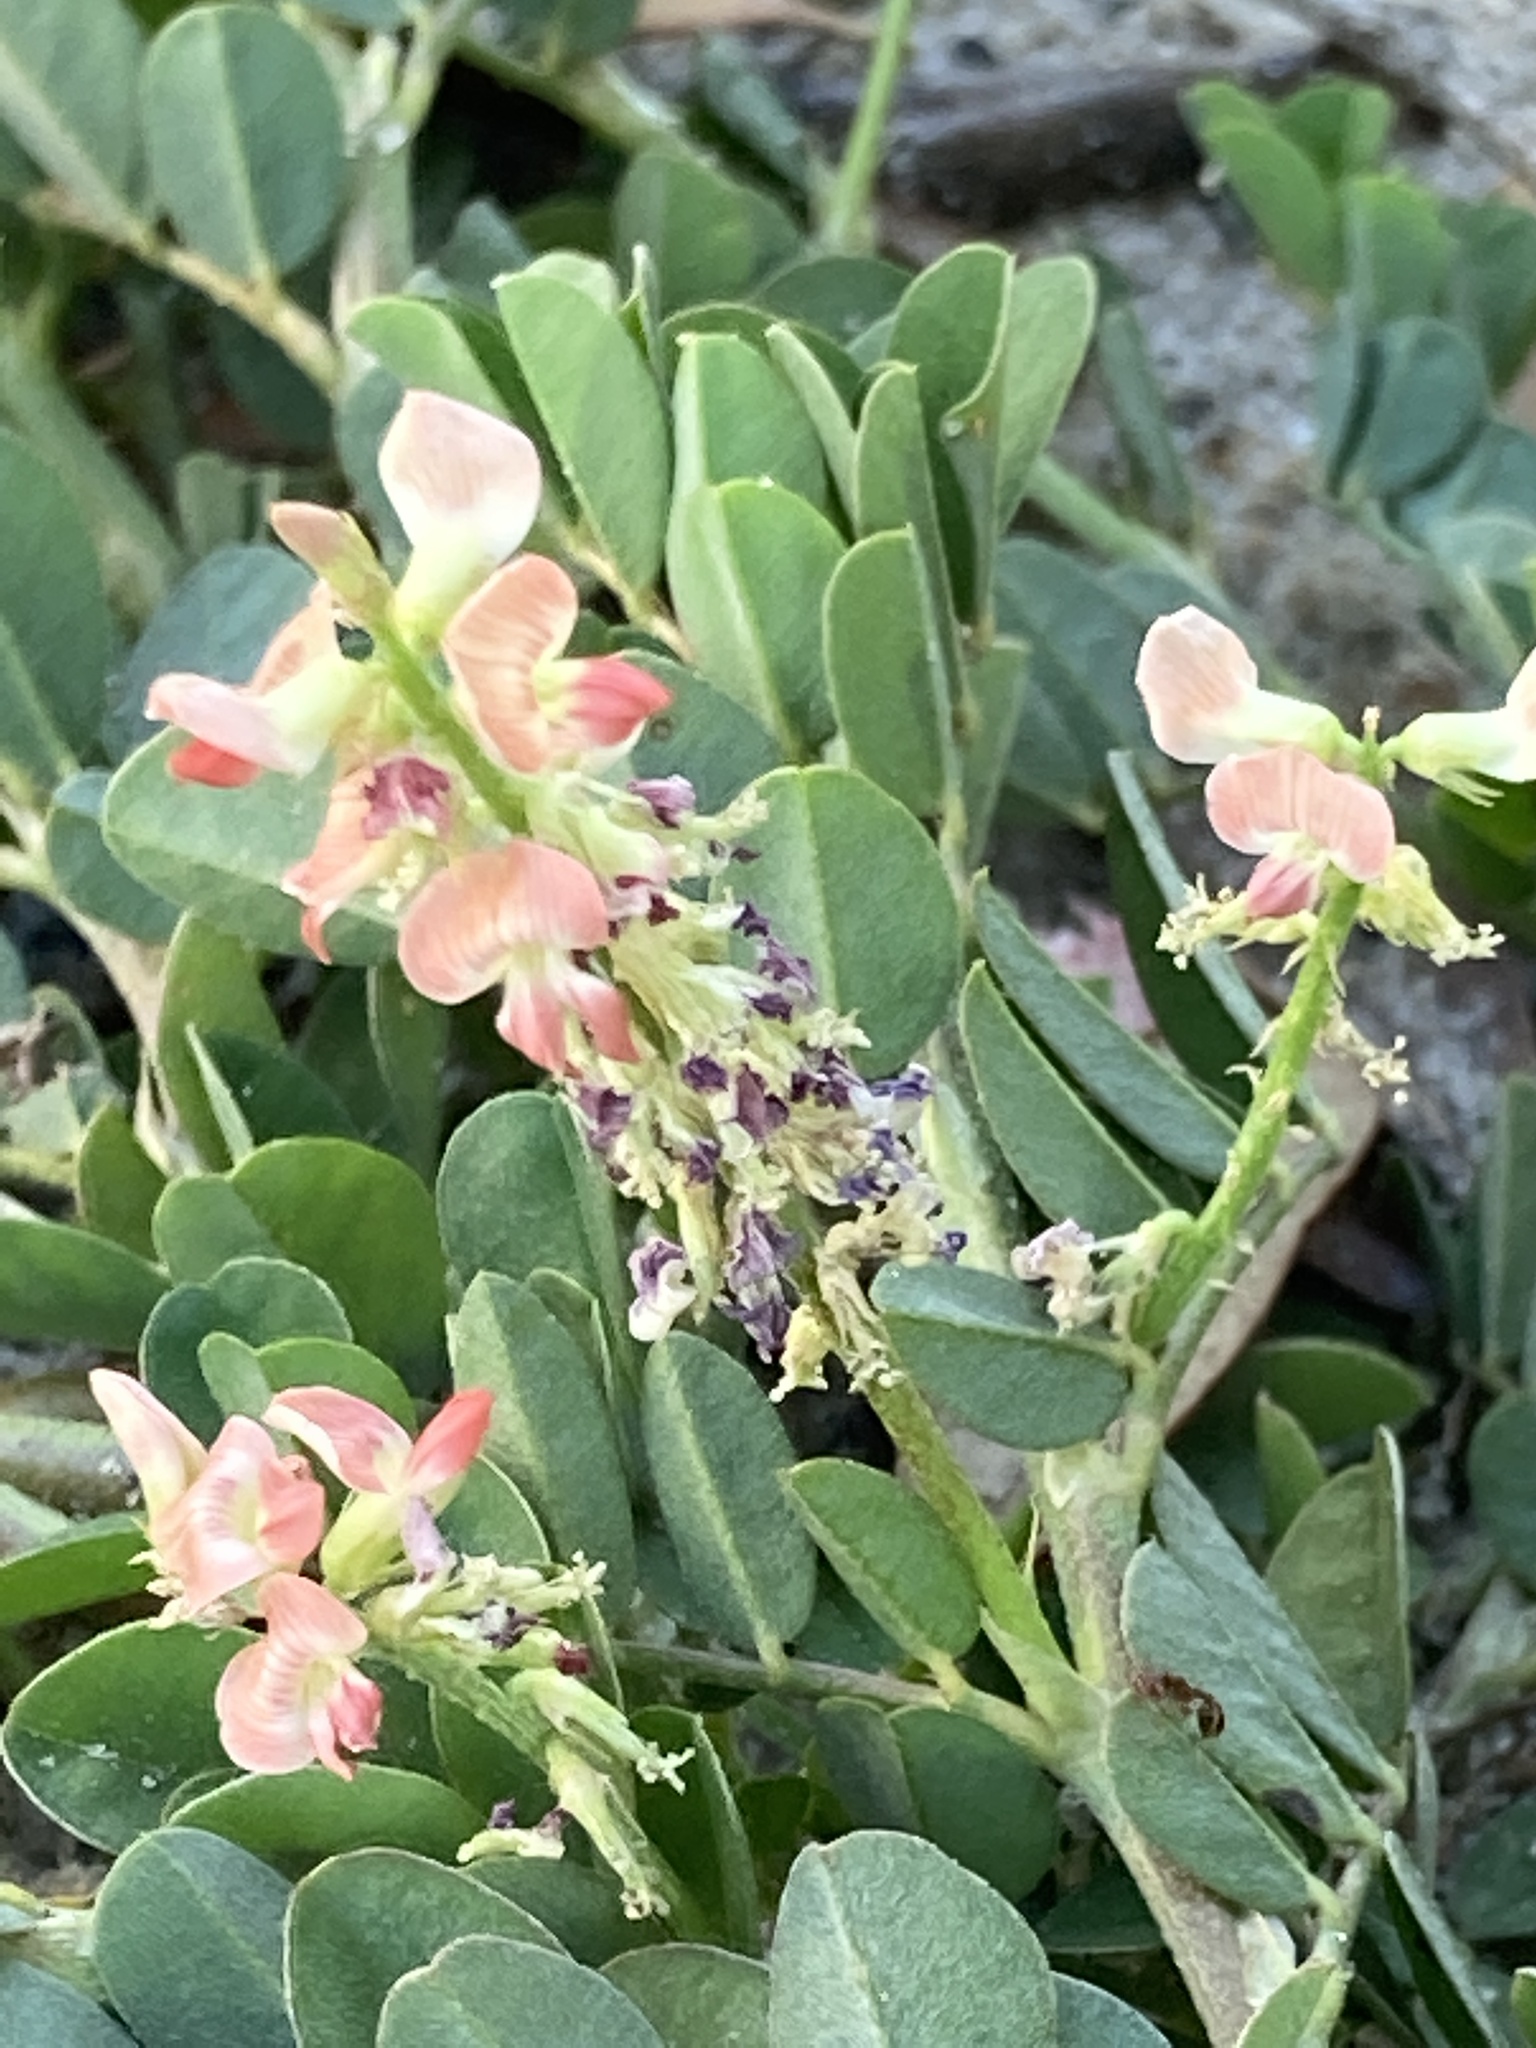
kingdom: Plantae
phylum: Tracheophyta
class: Magnoliopsida
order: Fabales
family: Fabaceae
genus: Indigofera
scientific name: Indigofera spicata
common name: Creeping indigo
